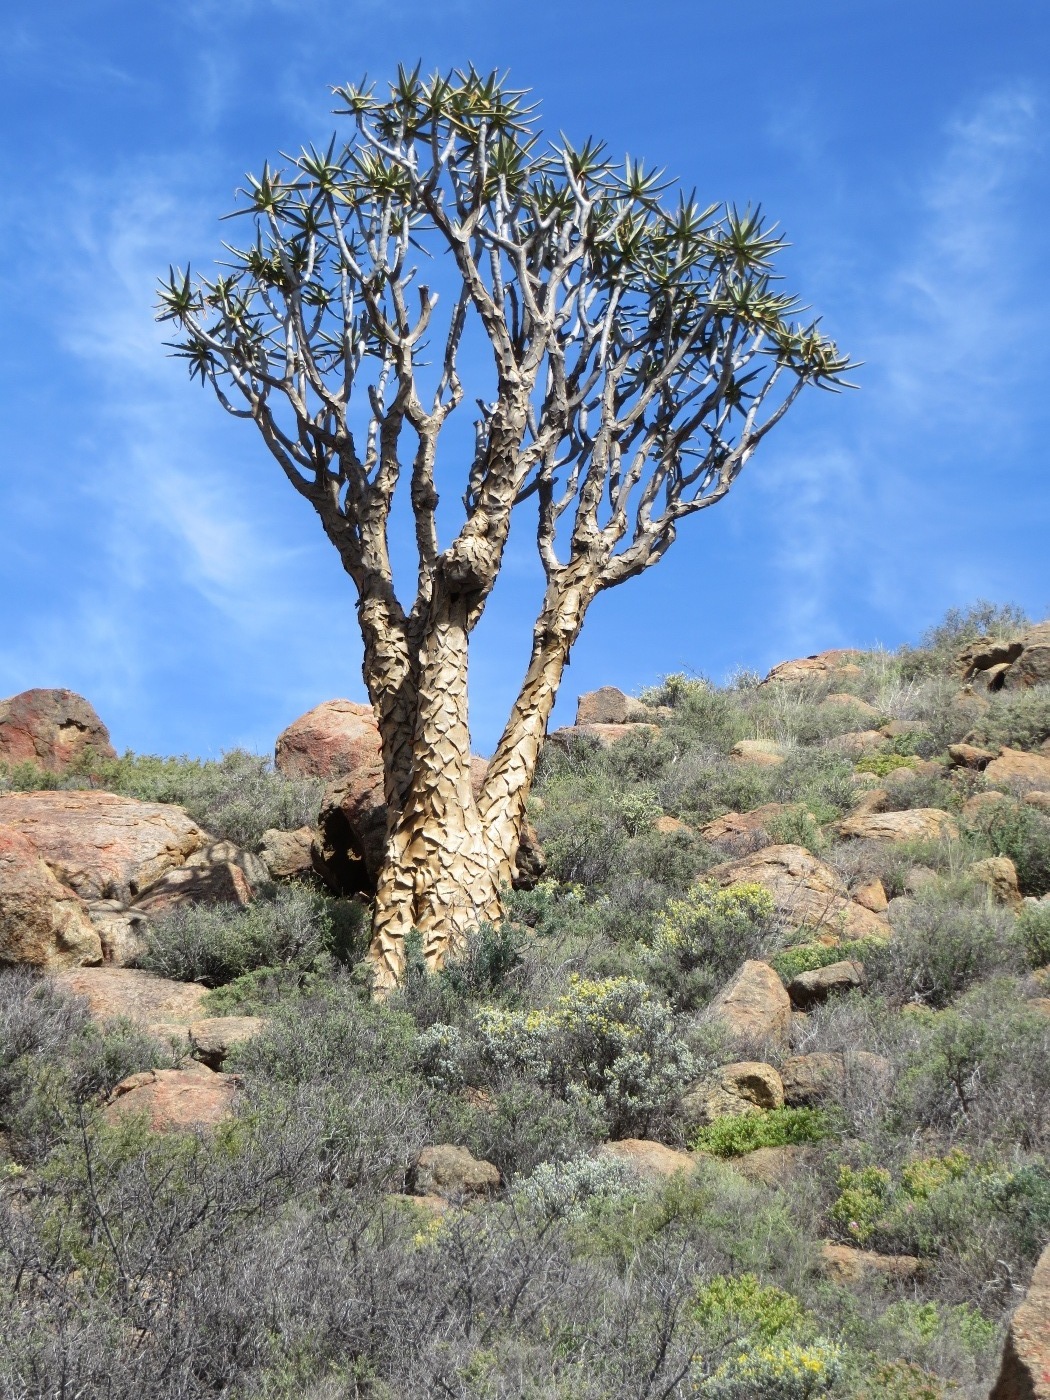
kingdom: Plantae
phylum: Tracheophyta
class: Liliopsida
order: Asparagales
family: Asphodelaceae
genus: Aloidendron
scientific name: Aloidendron dichotomum
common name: Quiver tree
